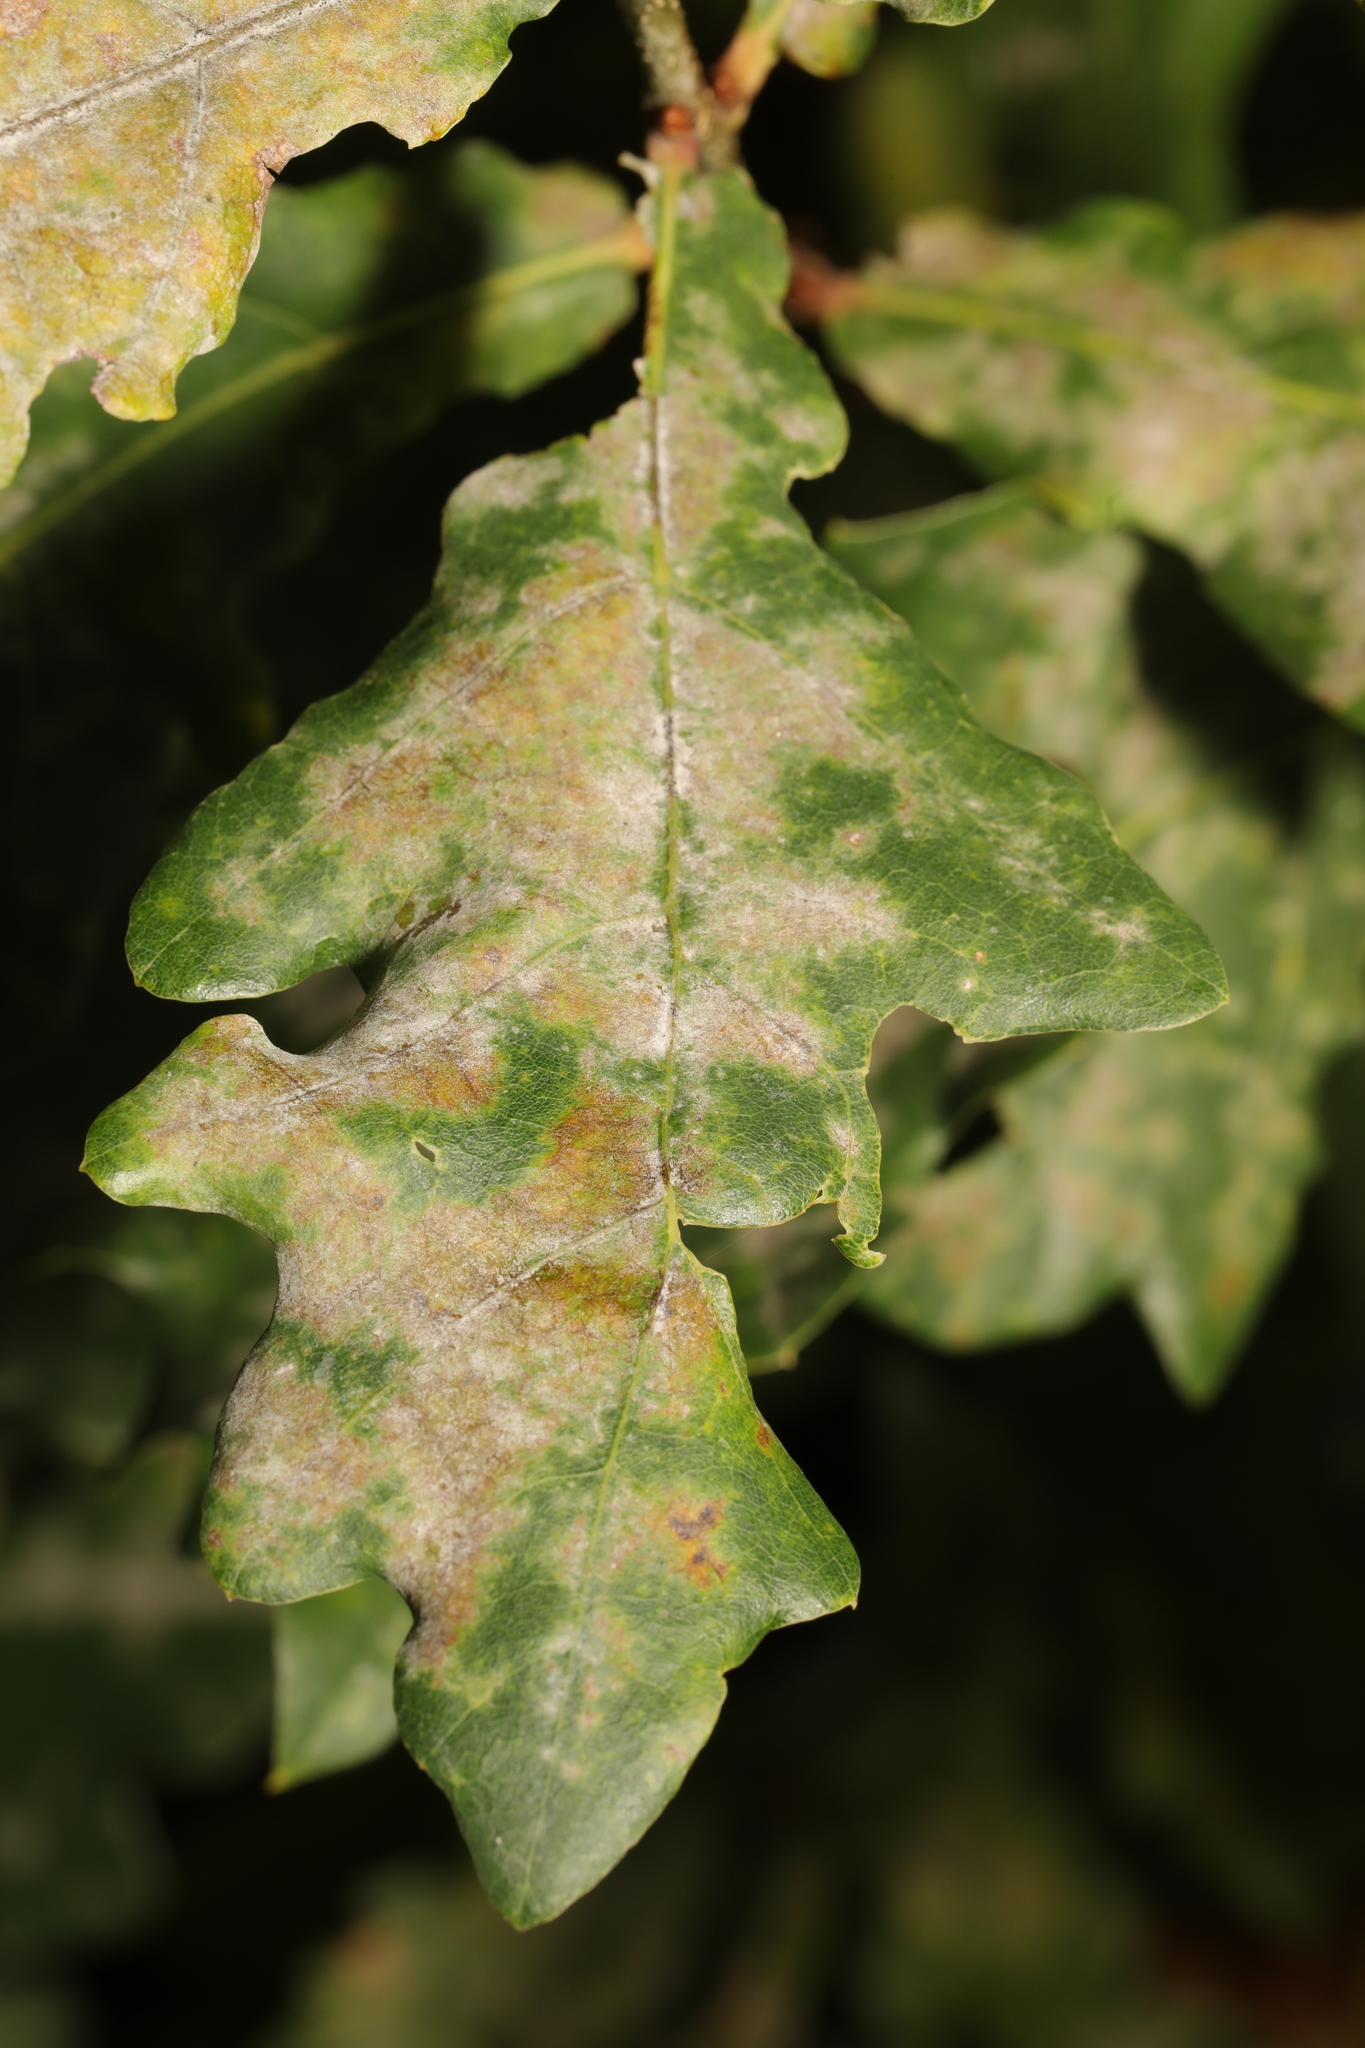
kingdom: Fungi
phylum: Ascomycota
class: Leotiomycetes
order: Helotiales
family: Erysiphaceae
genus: Erysiphe
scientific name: Erysiphe alphitoides
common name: Oak mildew
